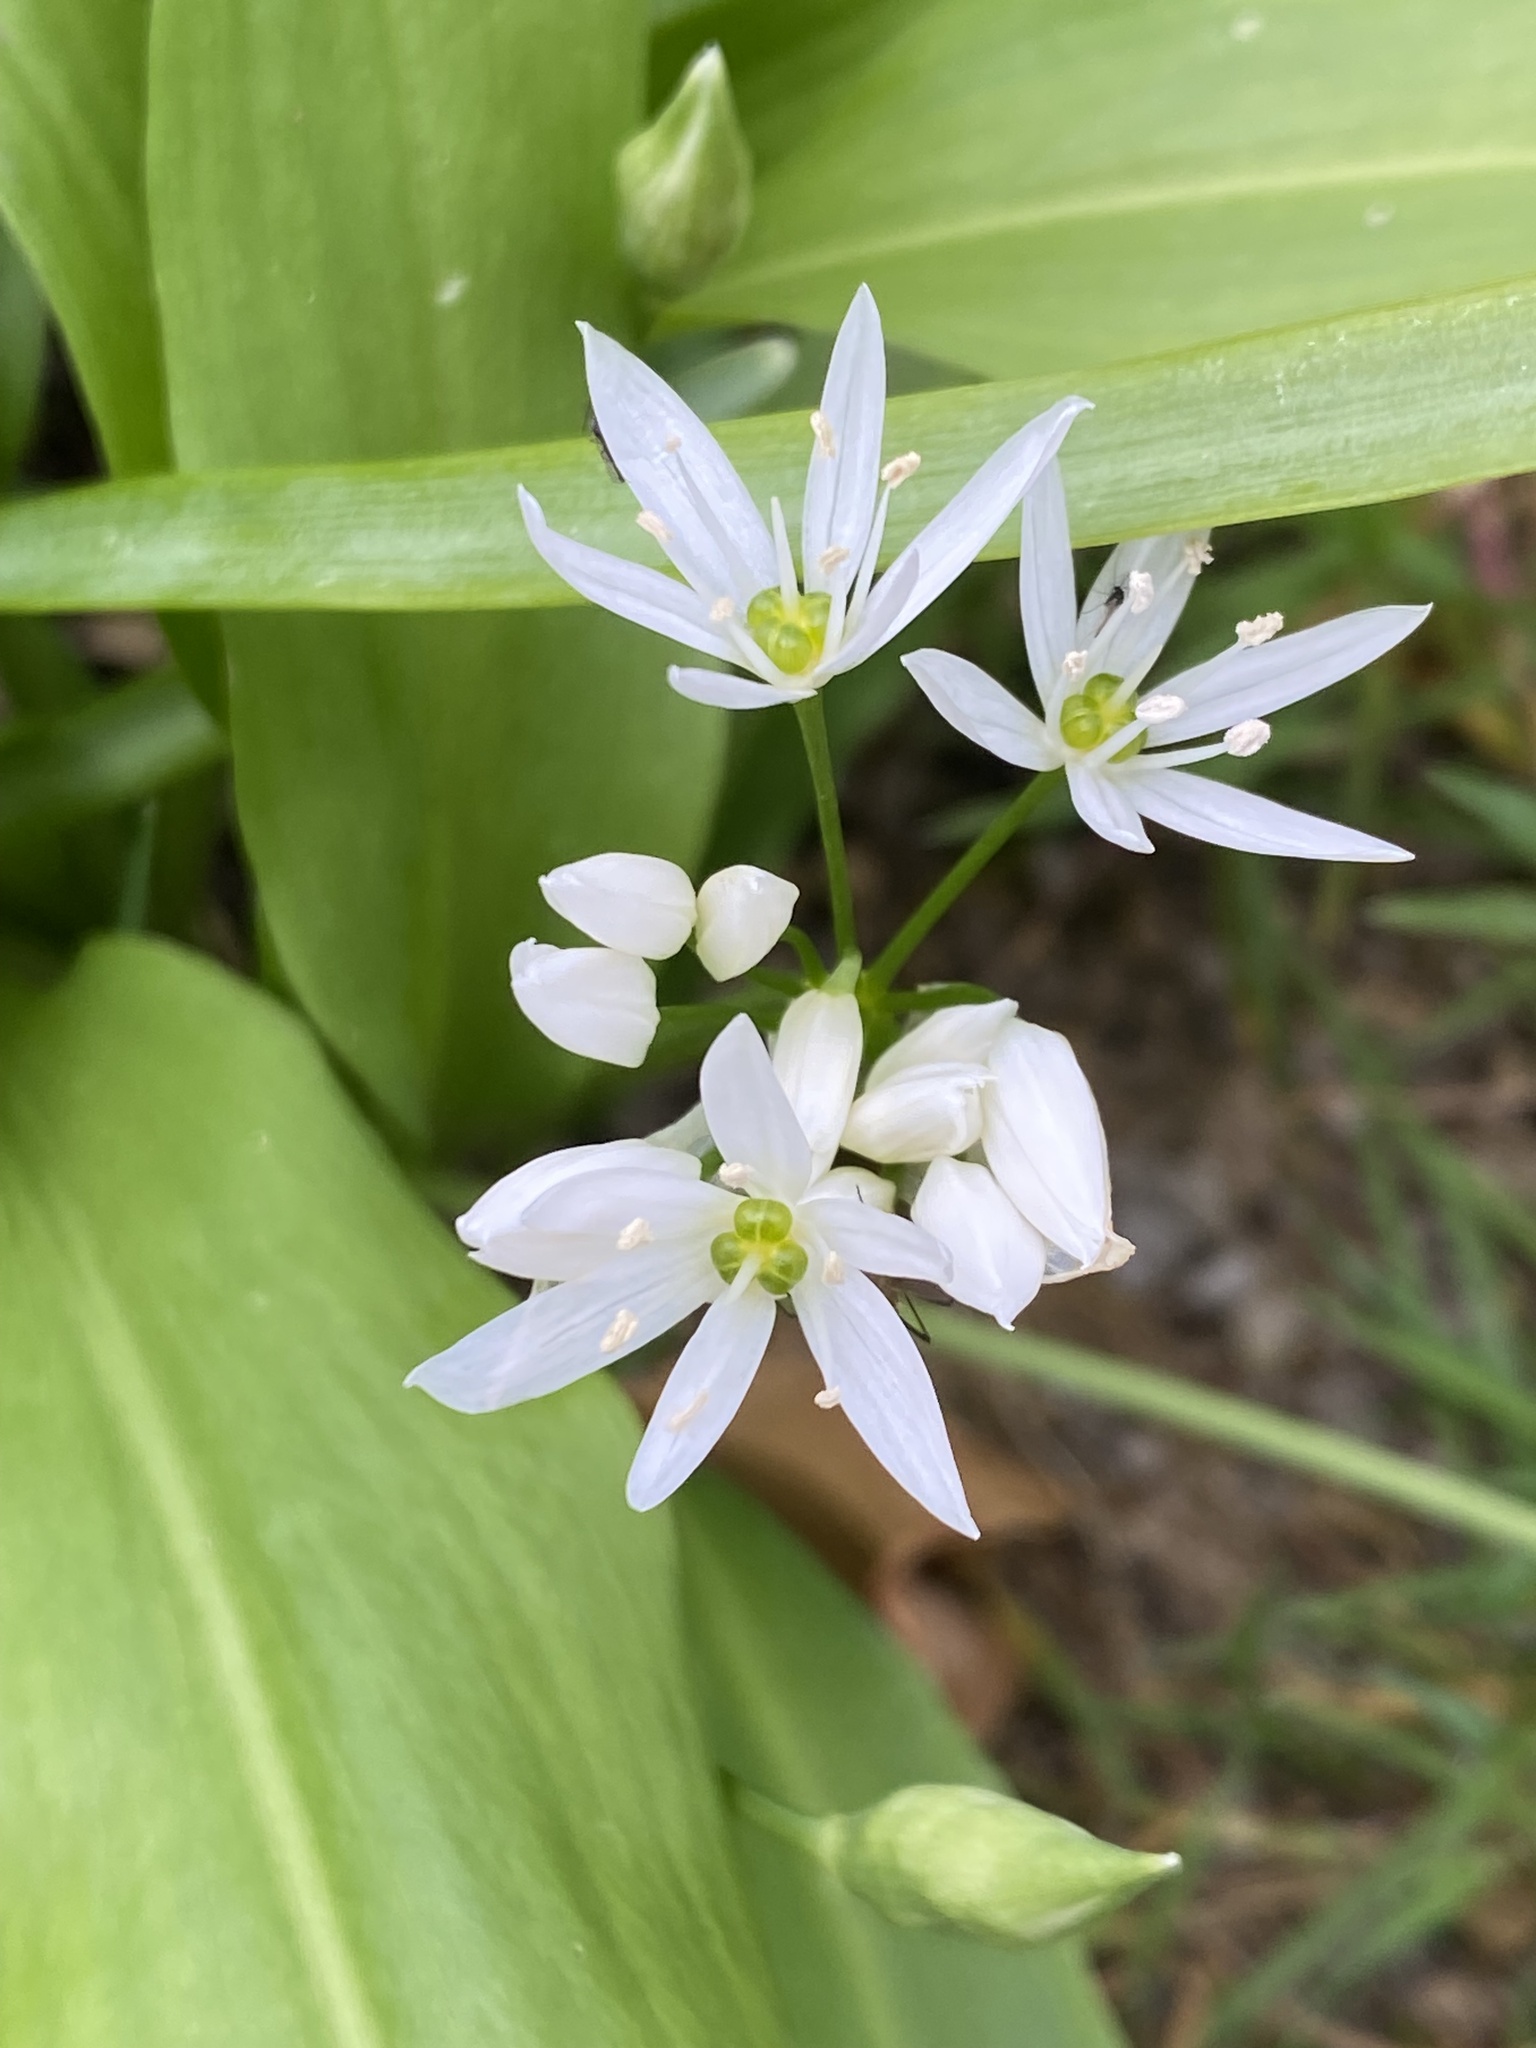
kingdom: Plantae
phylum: Tracheophyta
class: Liliopsida
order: Asparagales
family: Amaryllidaceae
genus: Allium
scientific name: Allium ursinum
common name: Ramsons
